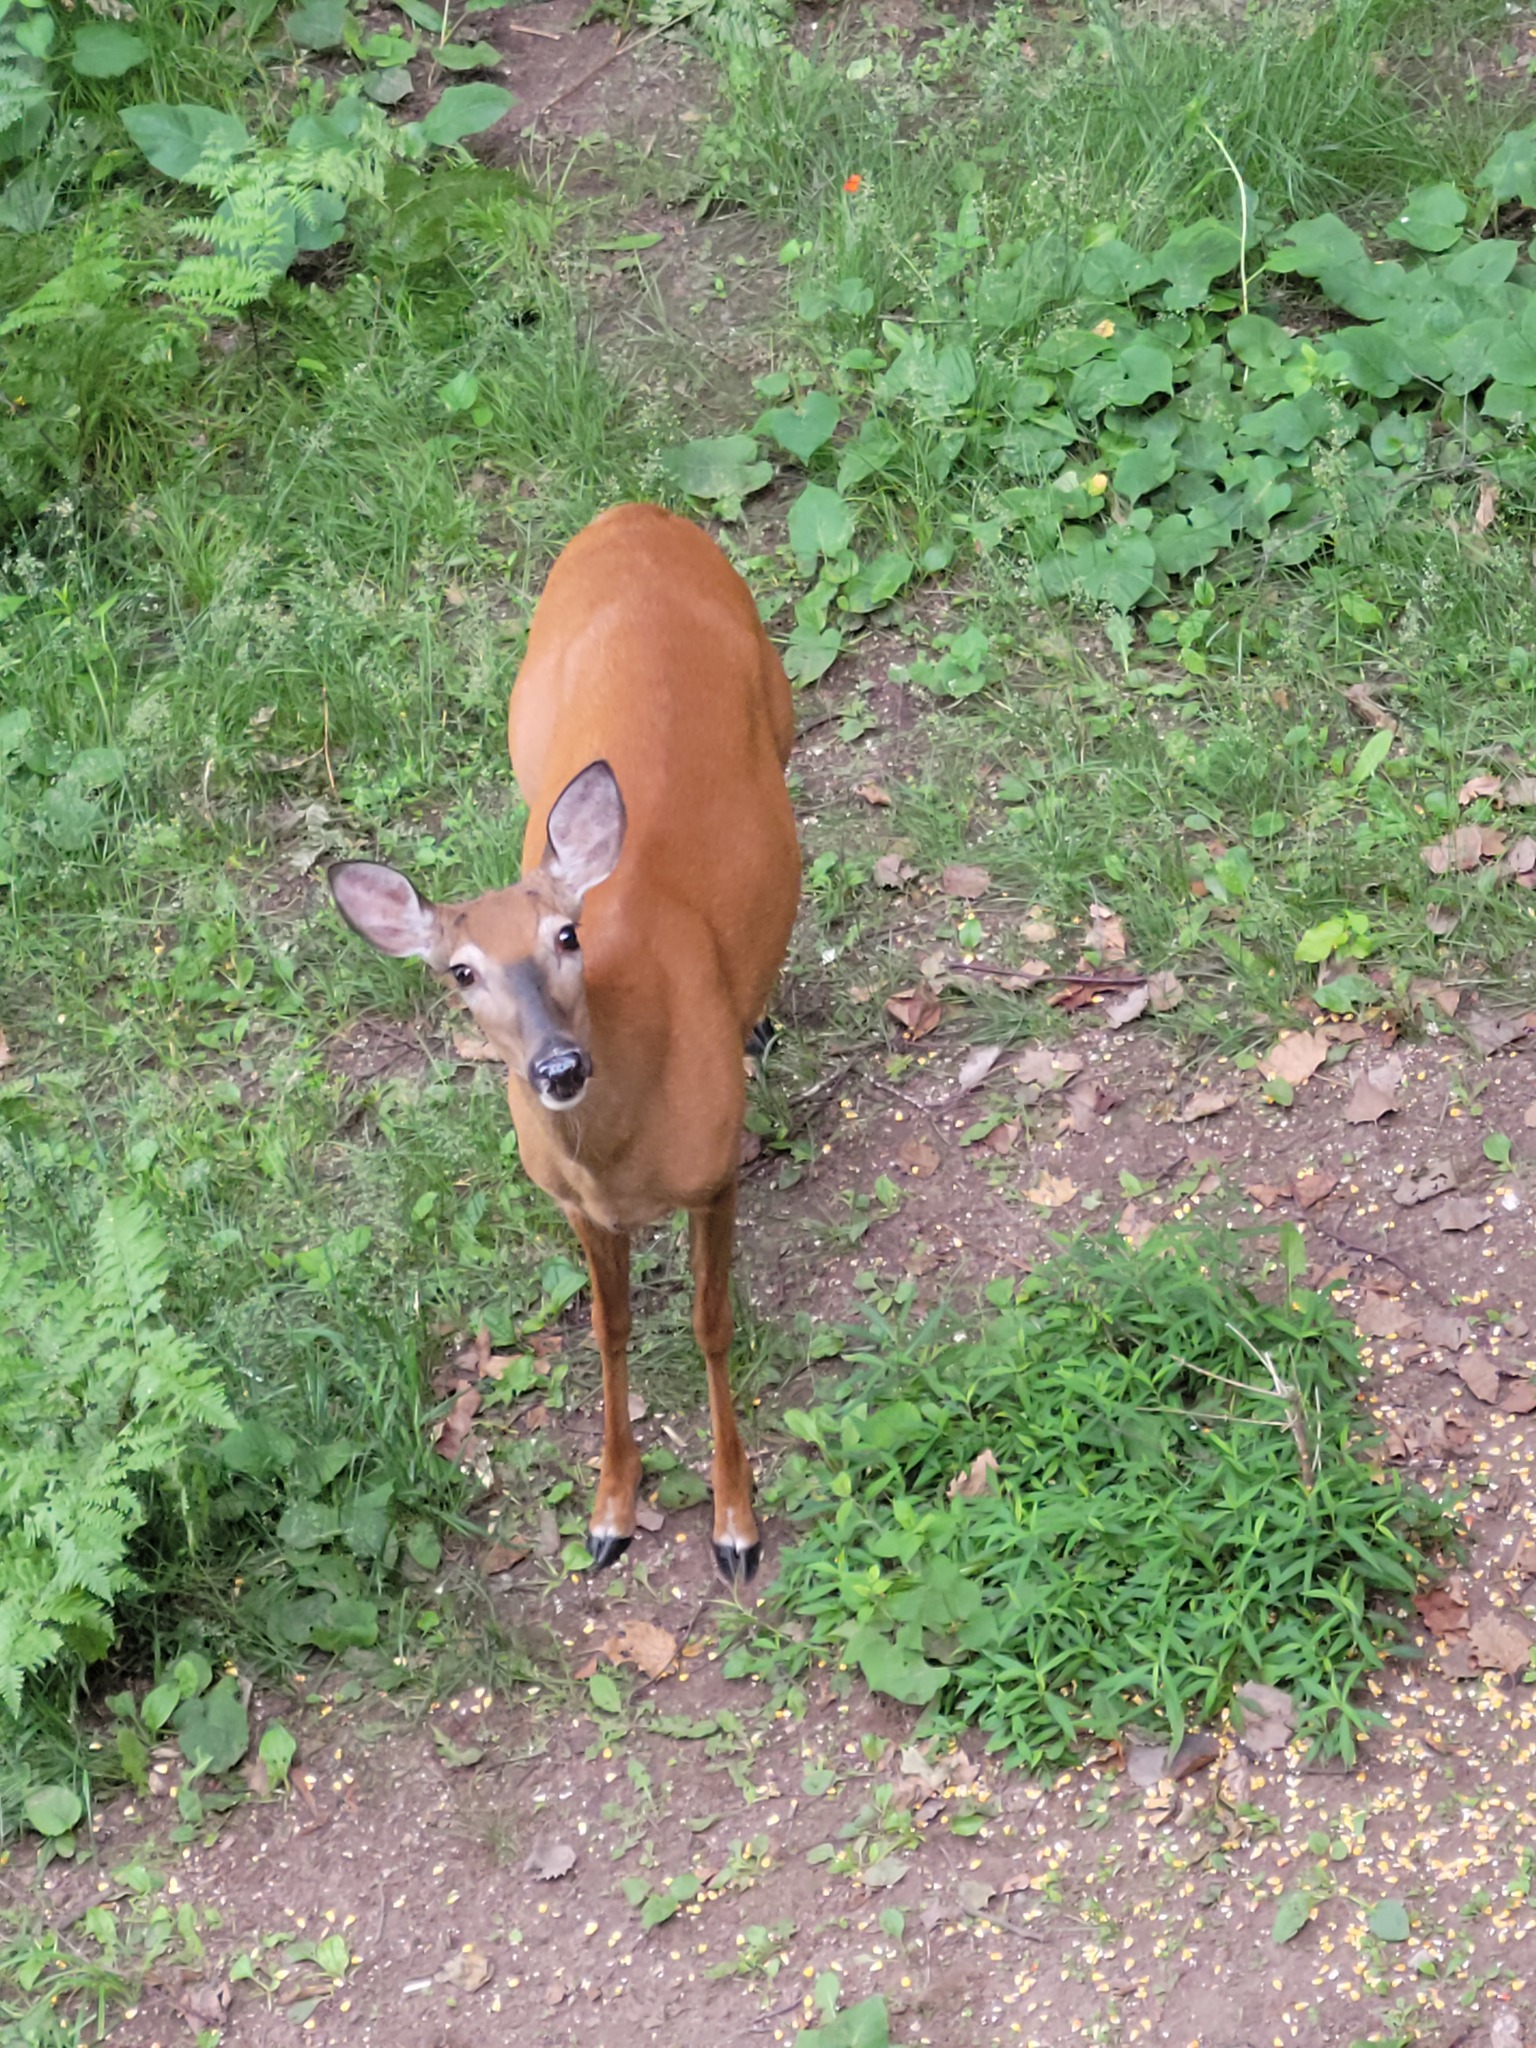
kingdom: Animalia
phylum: Chordata
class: Mammalia
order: Artiodactyla
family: Cervidae
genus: Odocoileus
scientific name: Odocoileus virginianus
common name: White-tailed deer
